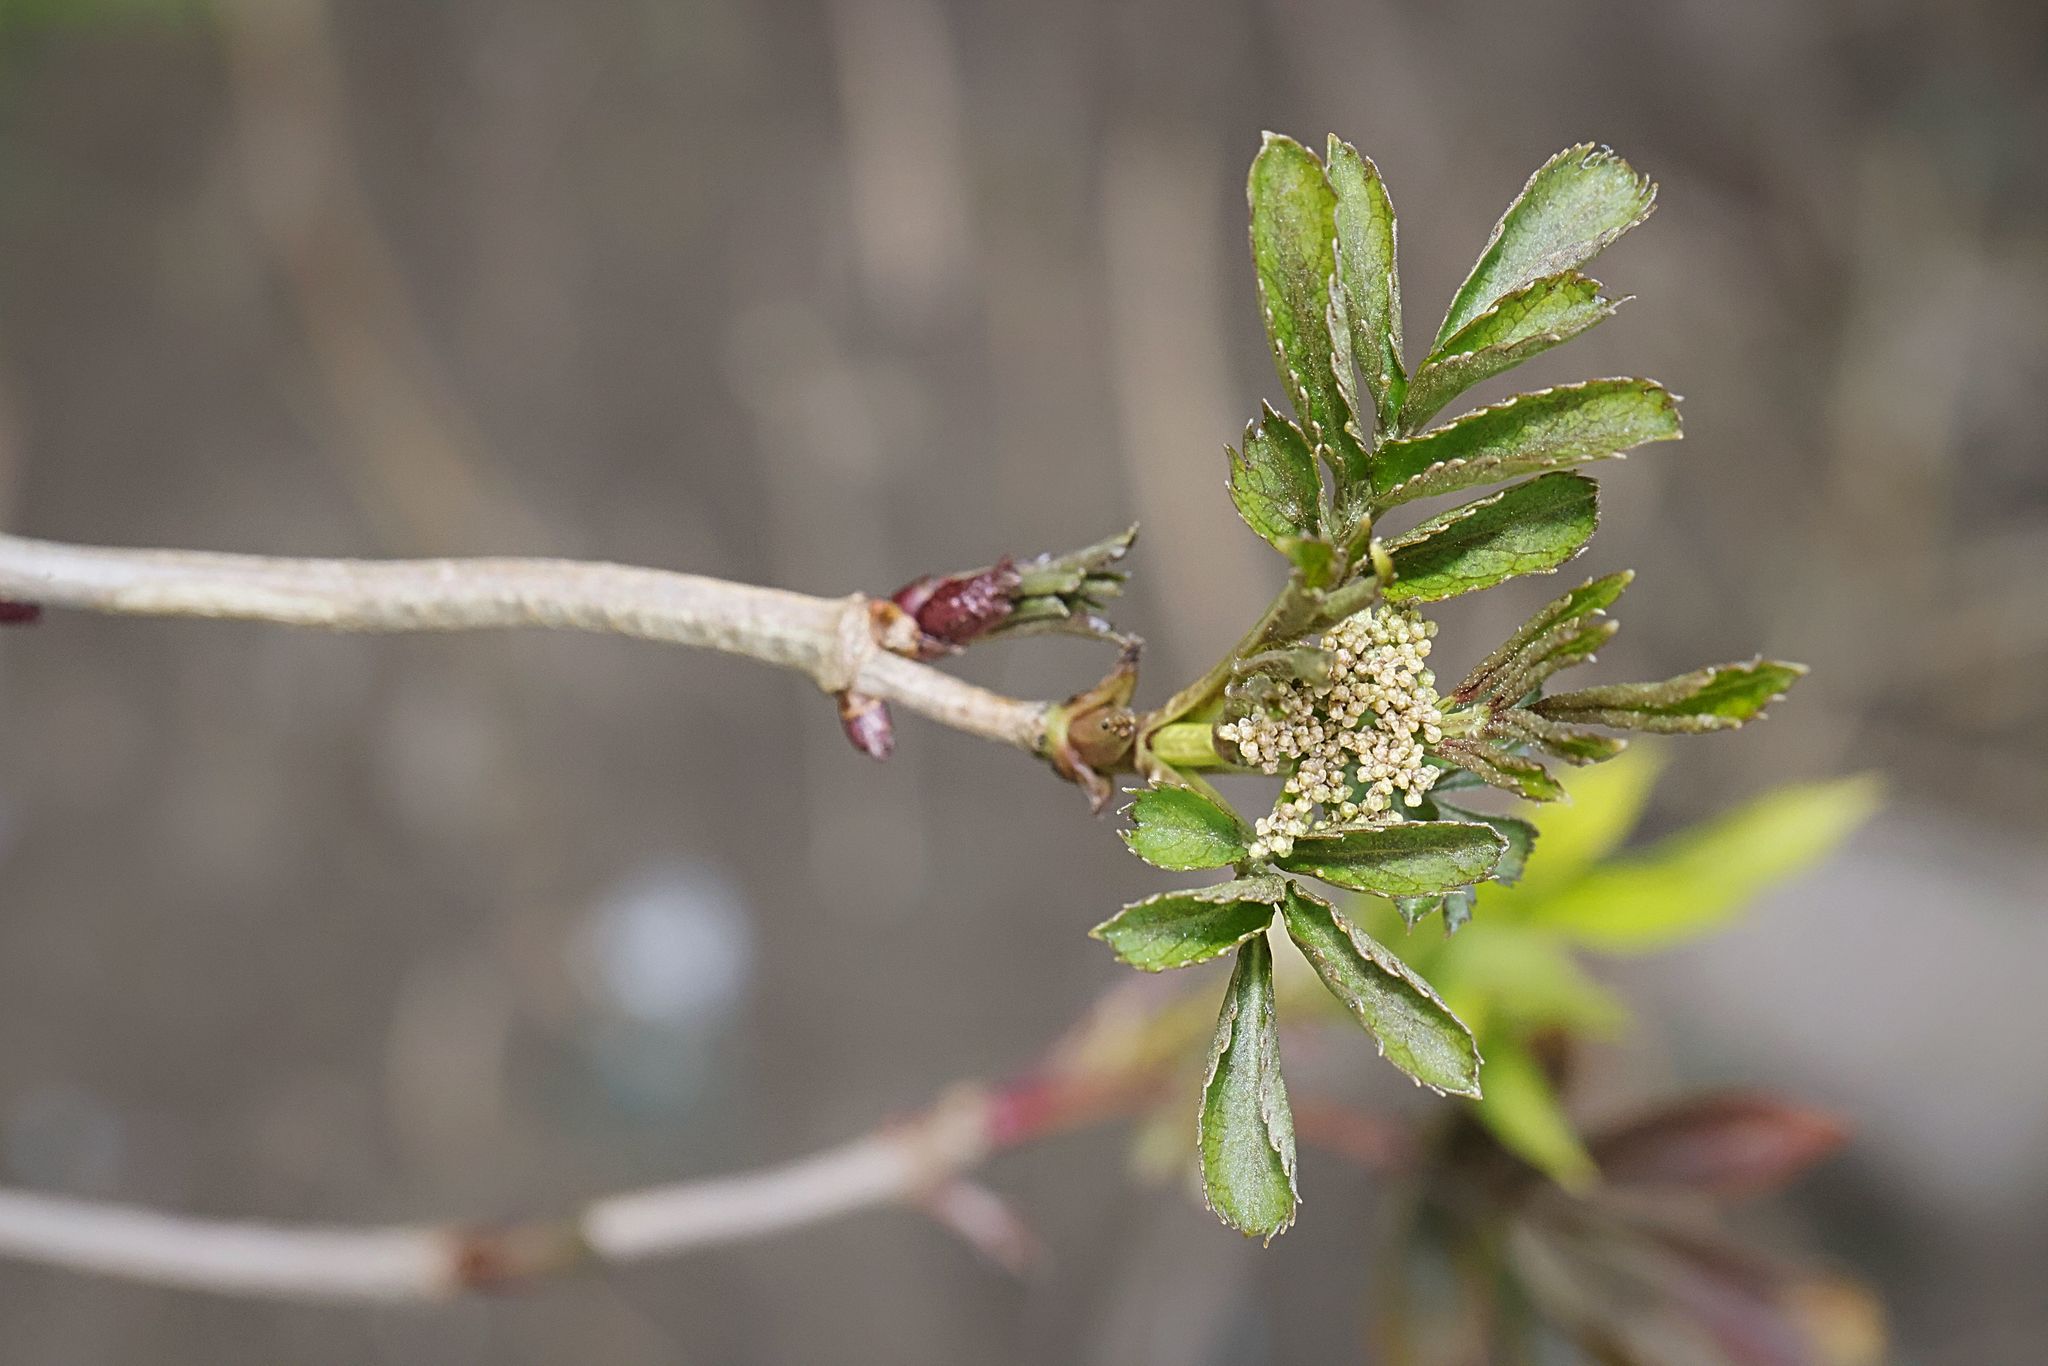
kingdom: Plantae
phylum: Tracheophyta
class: Magnoliopsida
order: Dipsacales
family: Viburnaceae
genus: Sambucus
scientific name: Sambucus nigra
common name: Elder
